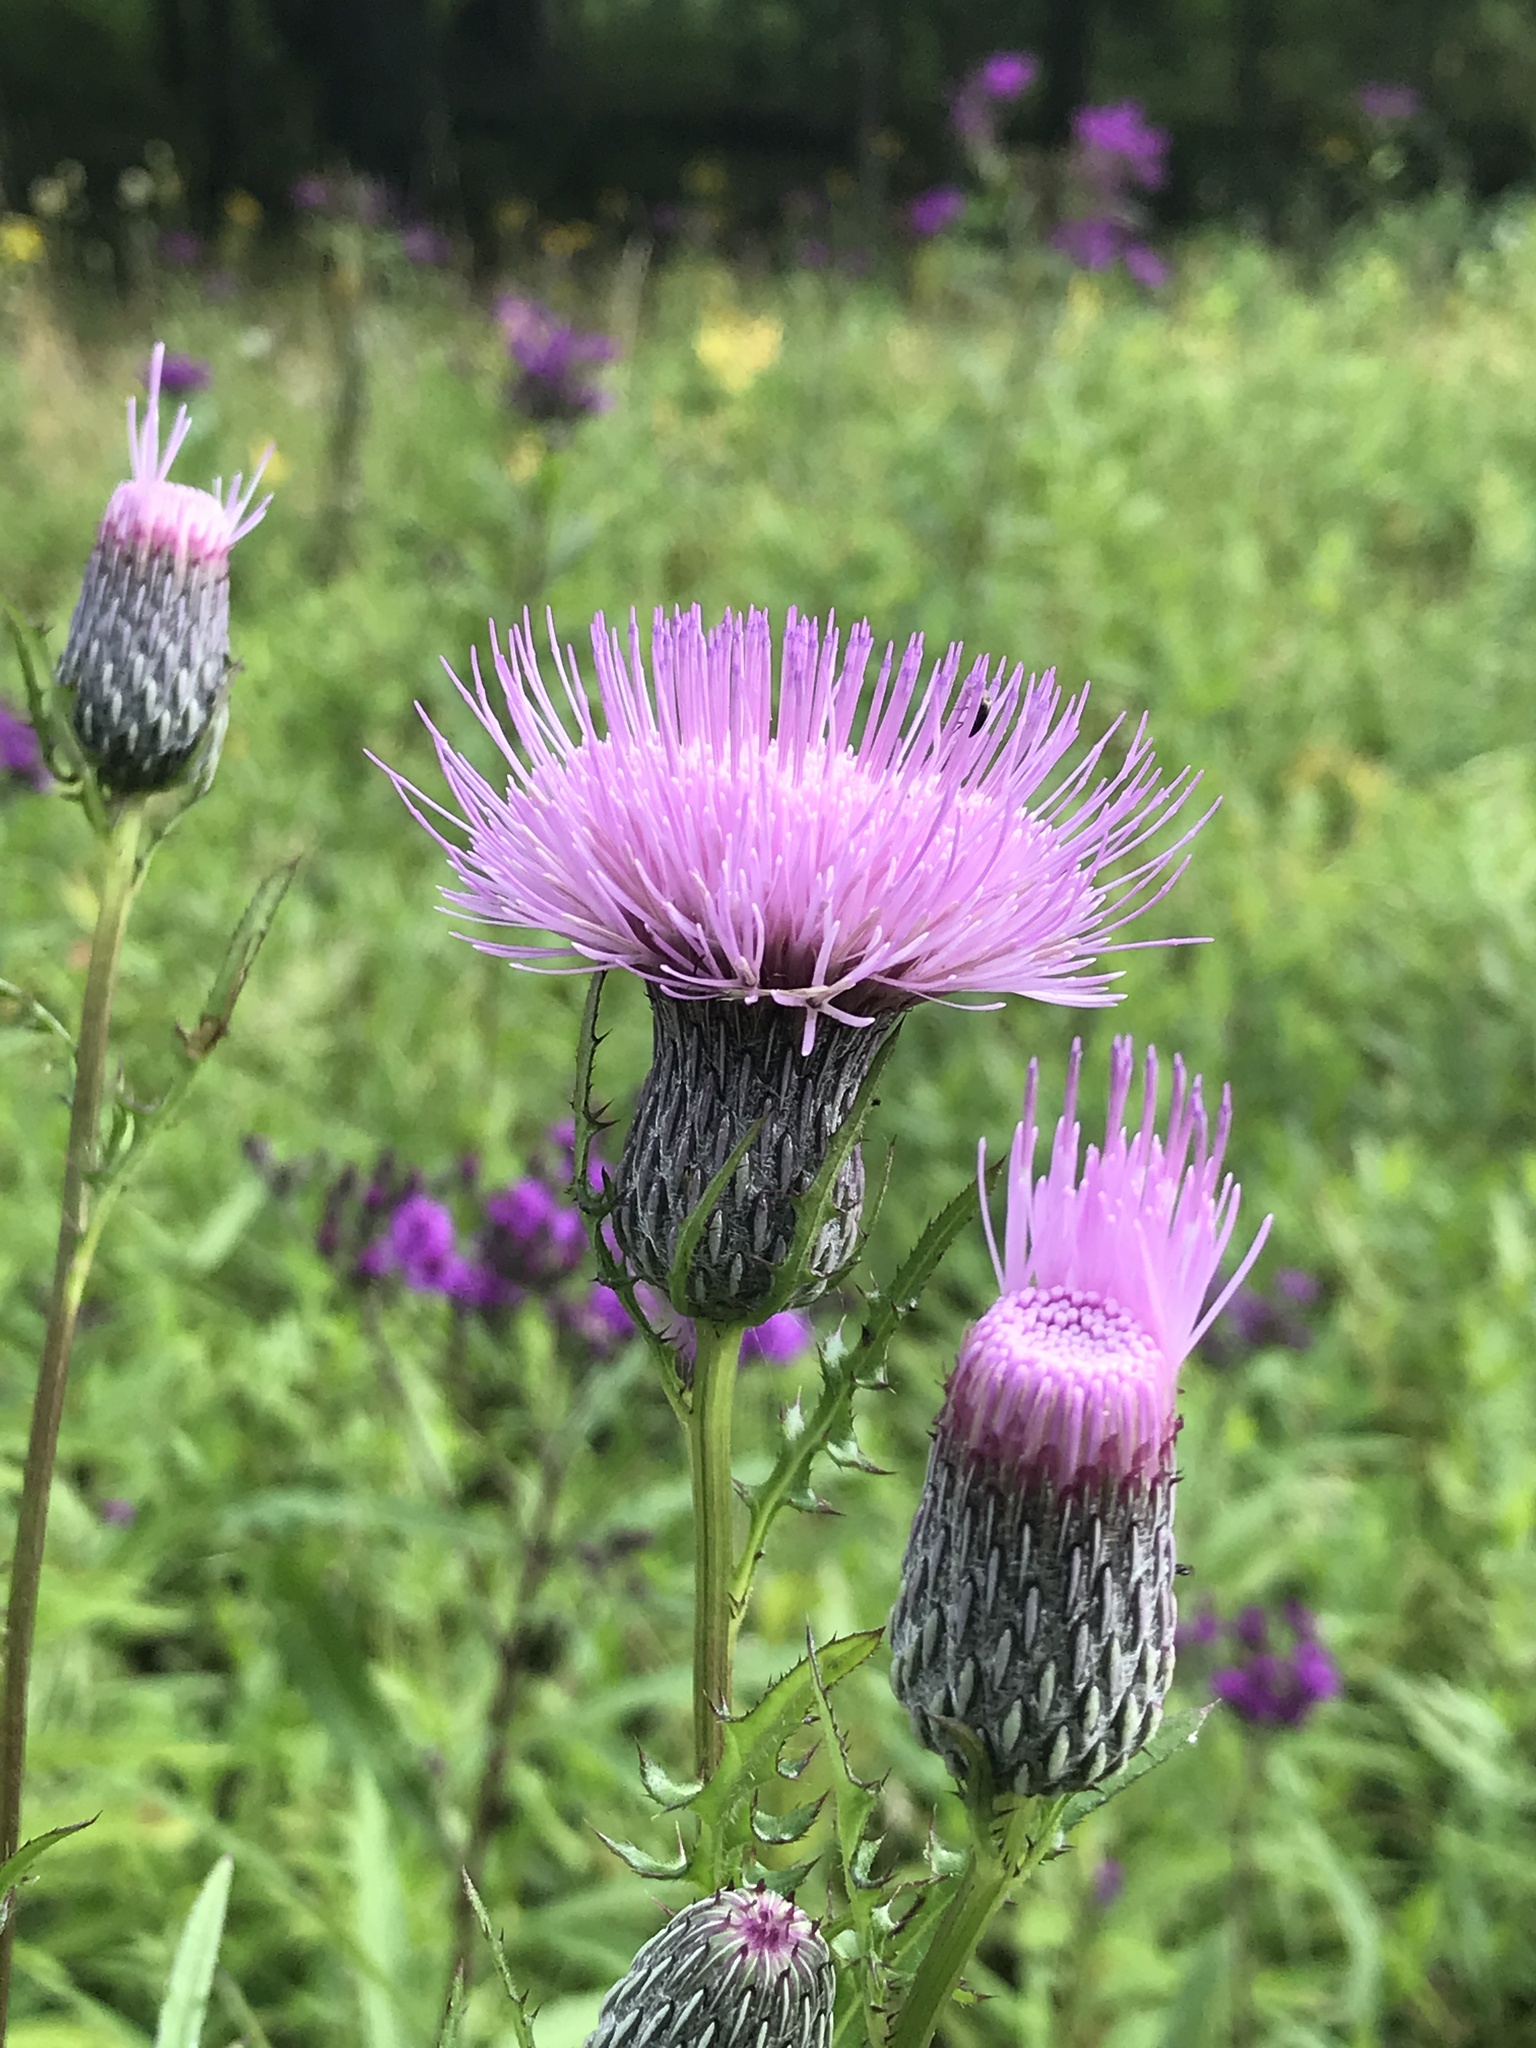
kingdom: Plantae
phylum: Tracheophyta
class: Magnoliopsida
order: Asterales
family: Asteraceae
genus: Cirsium
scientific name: Cirsium muticum
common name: Dunce-nettle
